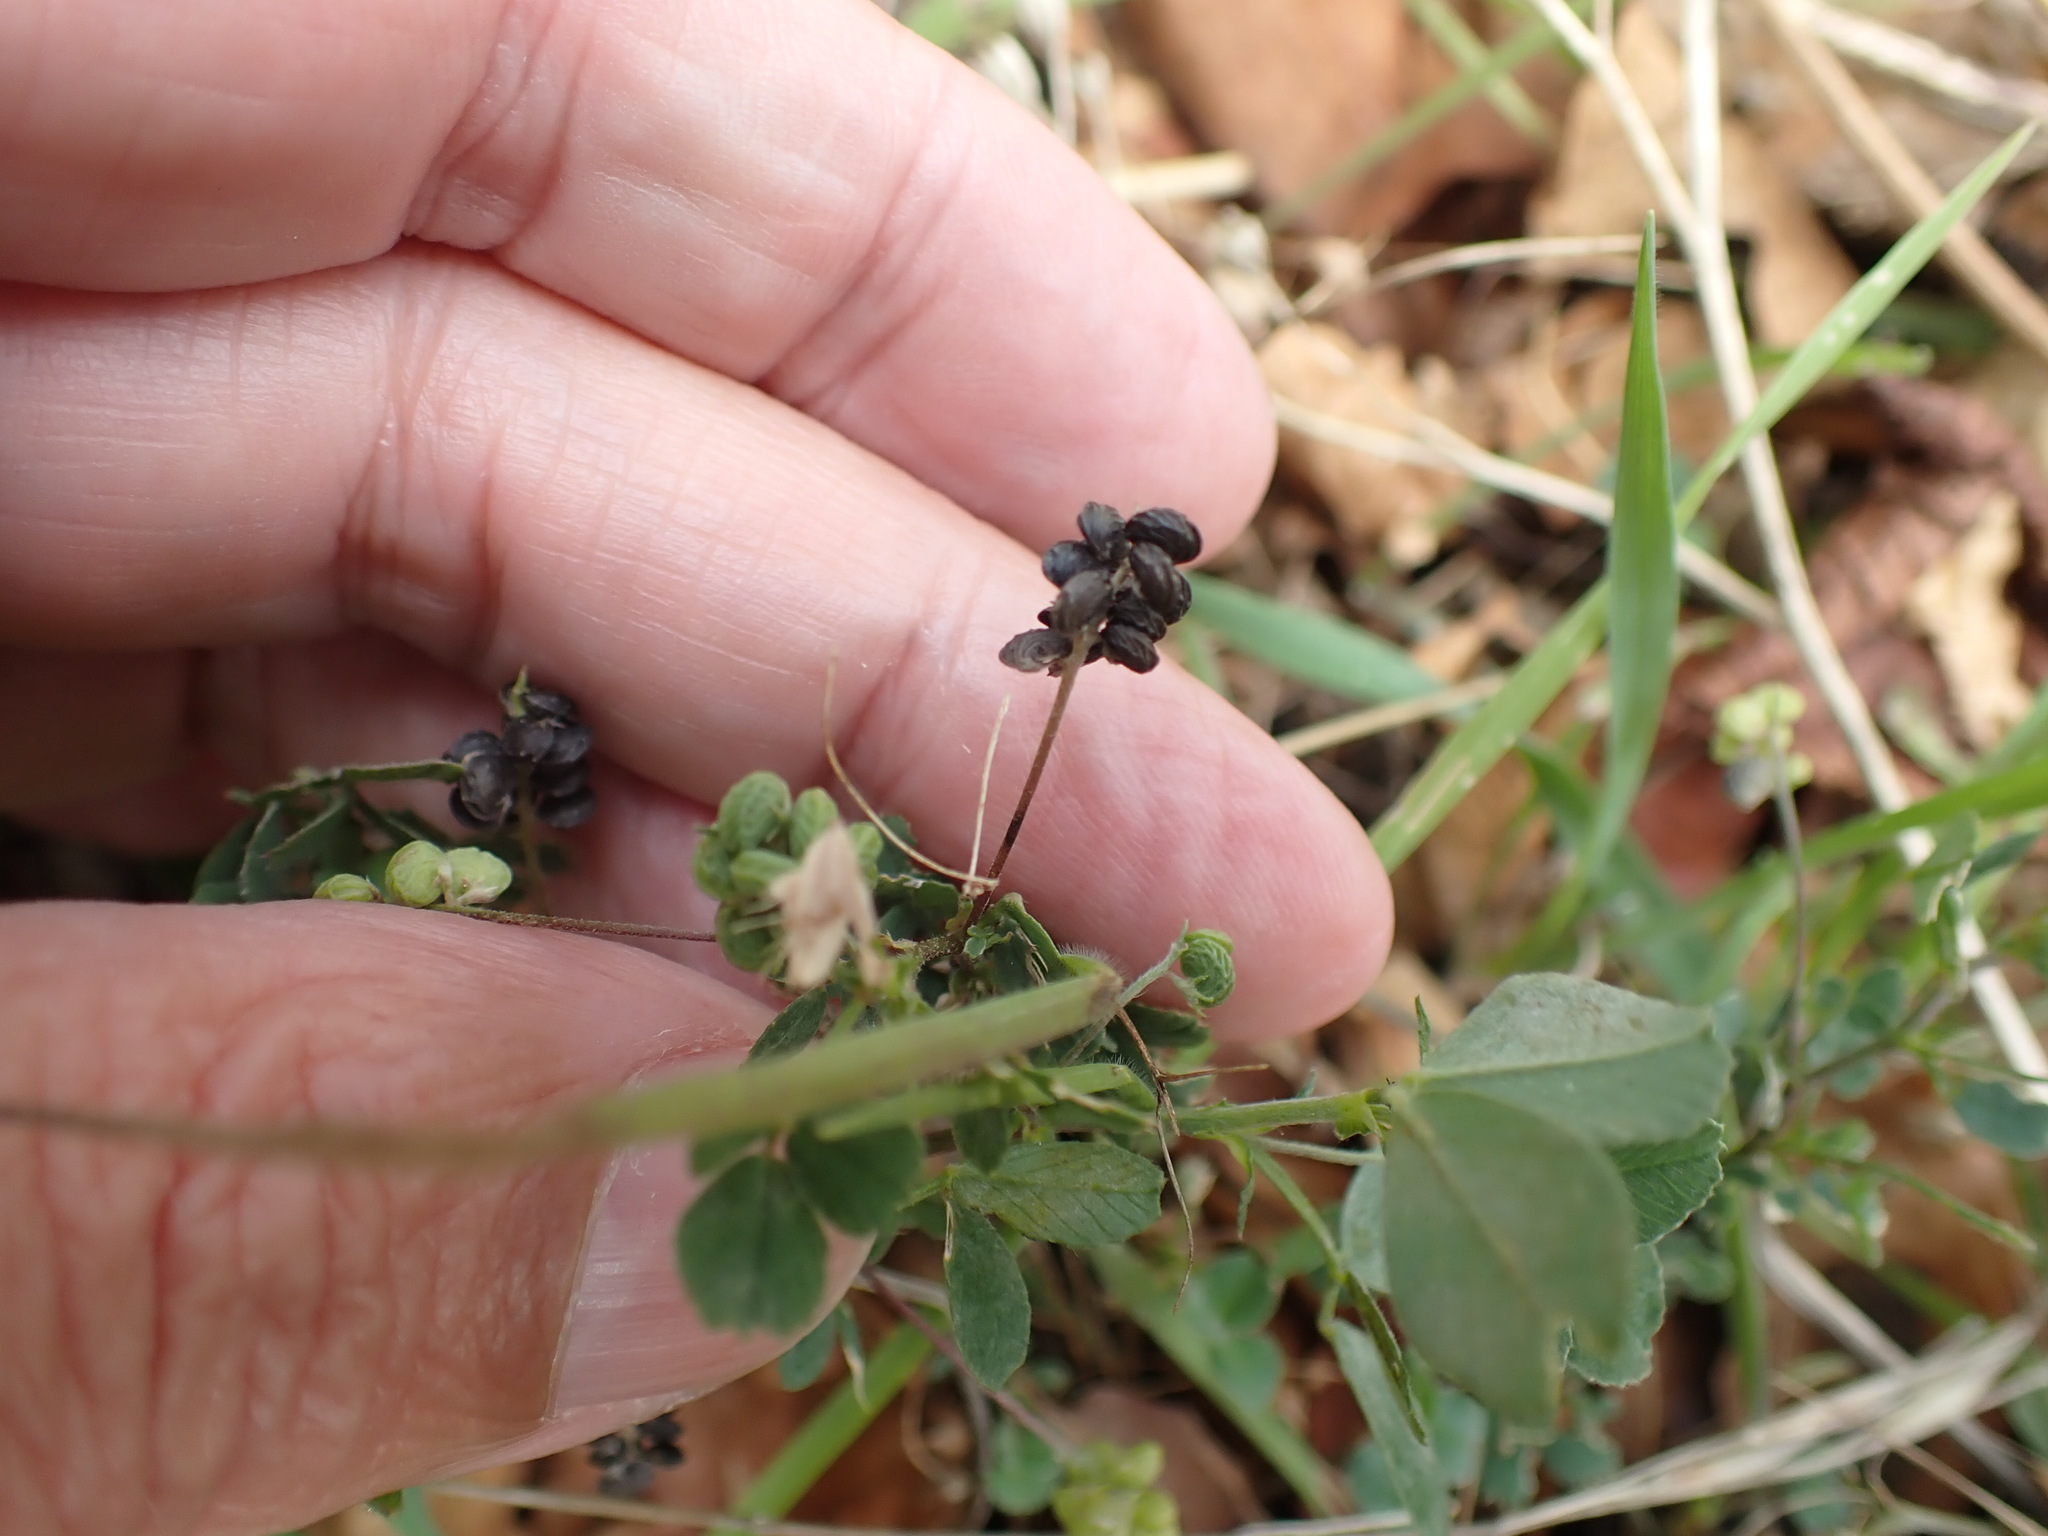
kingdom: Plantae
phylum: Tracheophyta
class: Magnoliopsida
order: Fabales
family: Fabaceae
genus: Medicago
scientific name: Medicago lupulina
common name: Black medick
